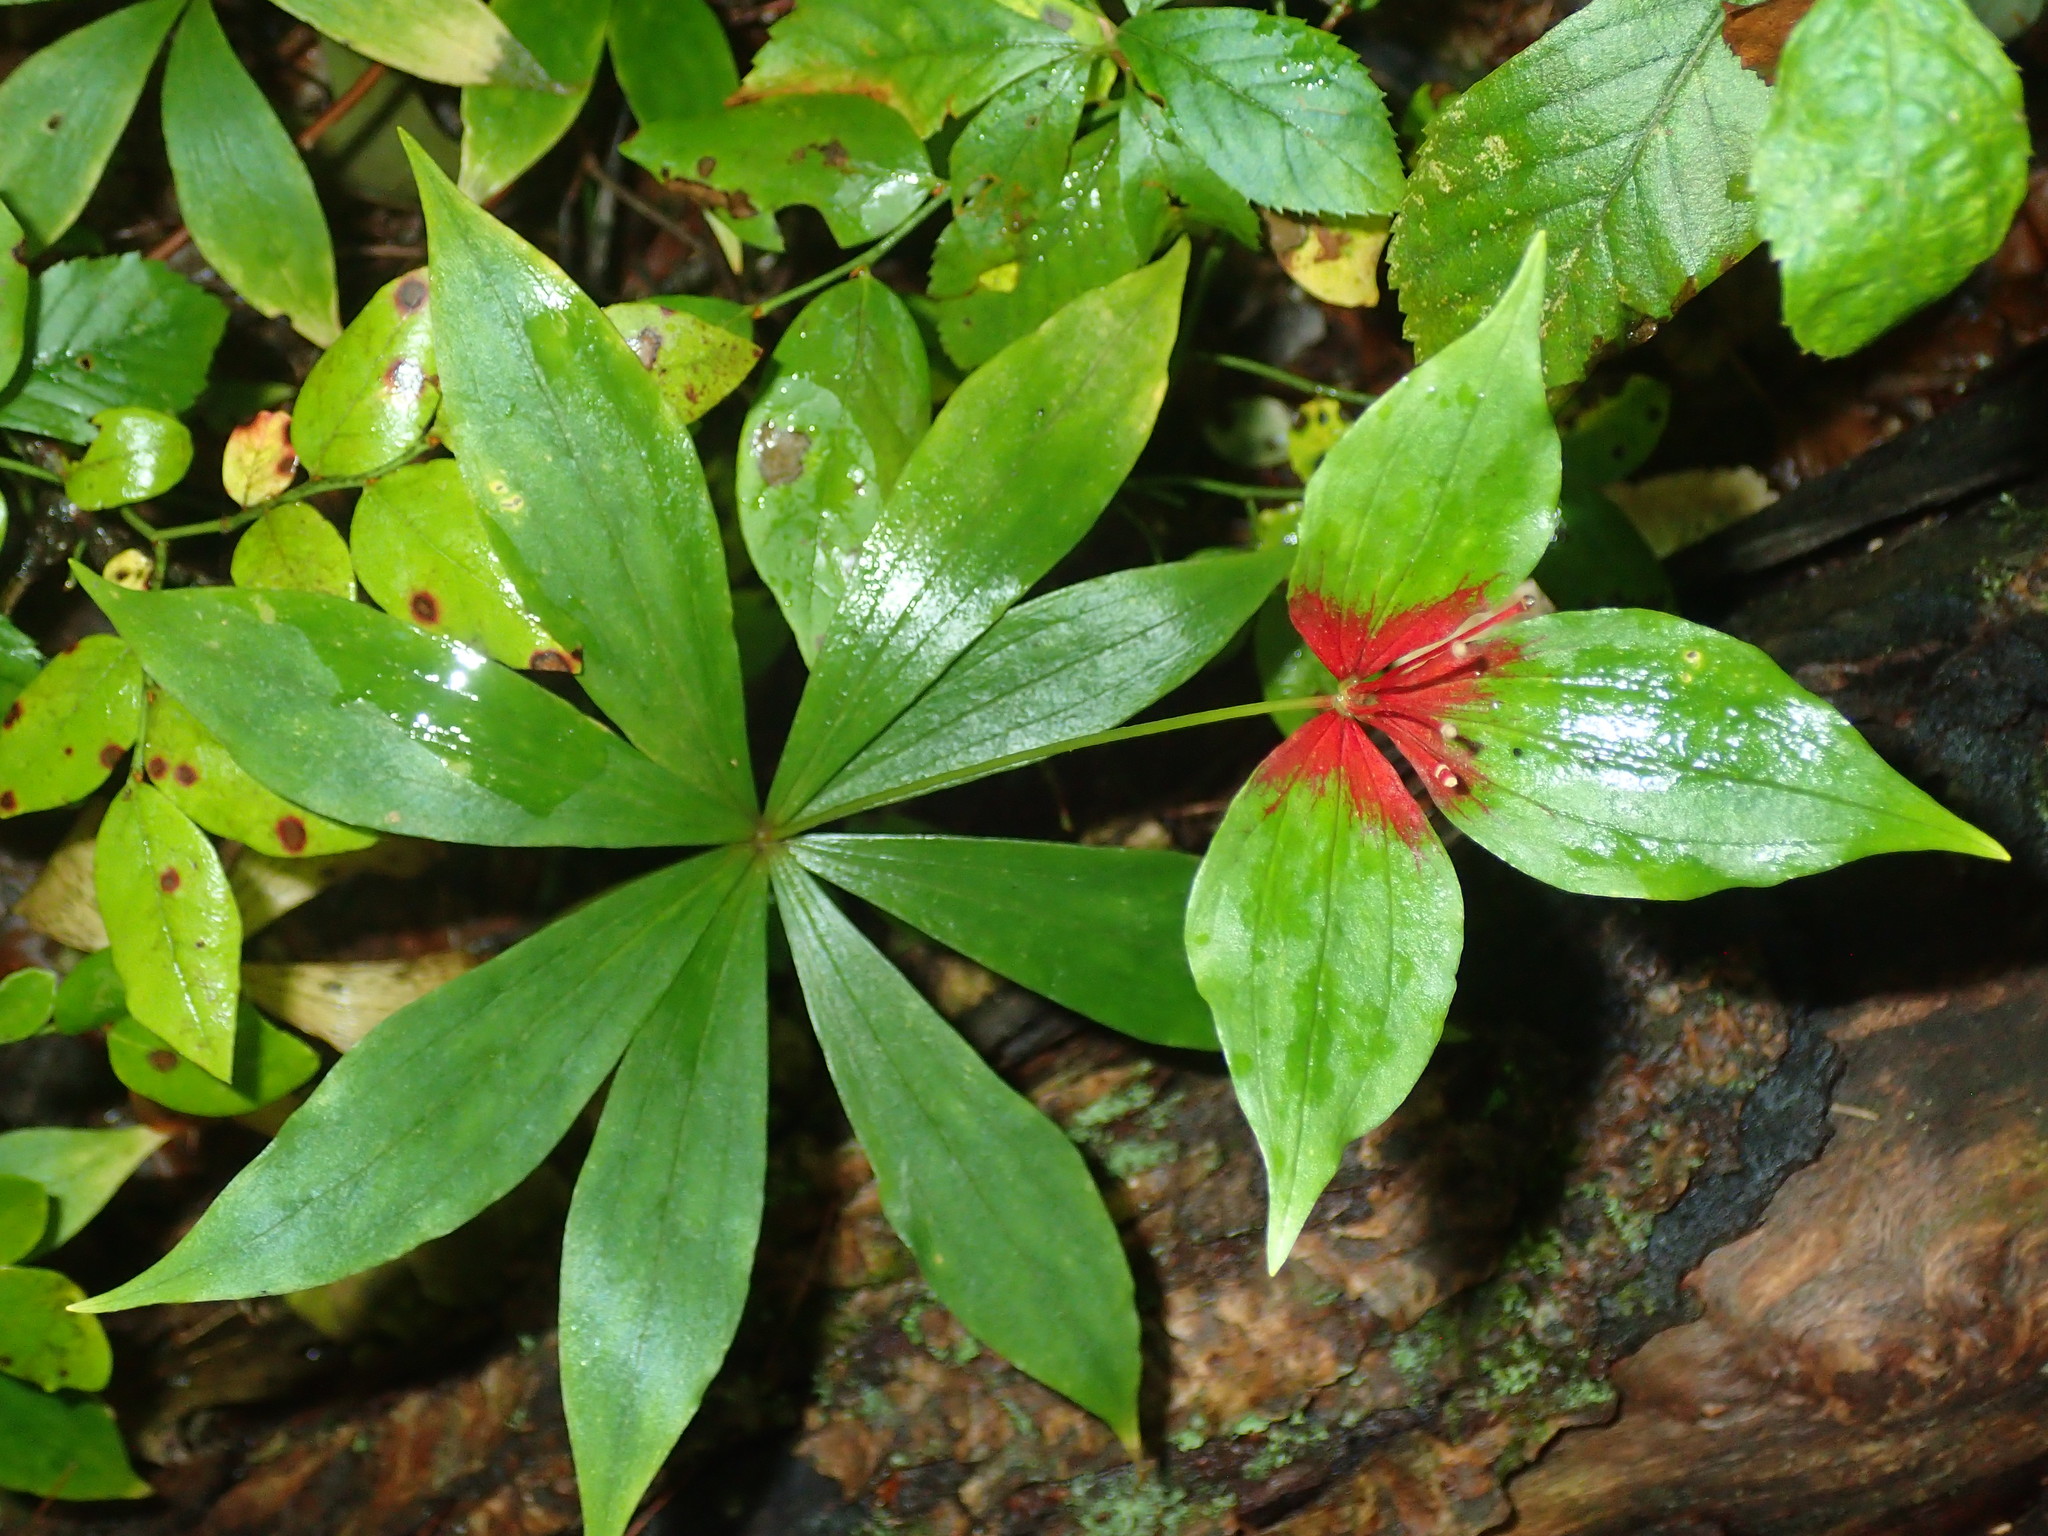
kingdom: Plantae
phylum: Tracheophyta
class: Liliopsida
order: Liliales
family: Liliaceae
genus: Medeola
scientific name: Medeola virginiana
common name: Indian cucumber-root
